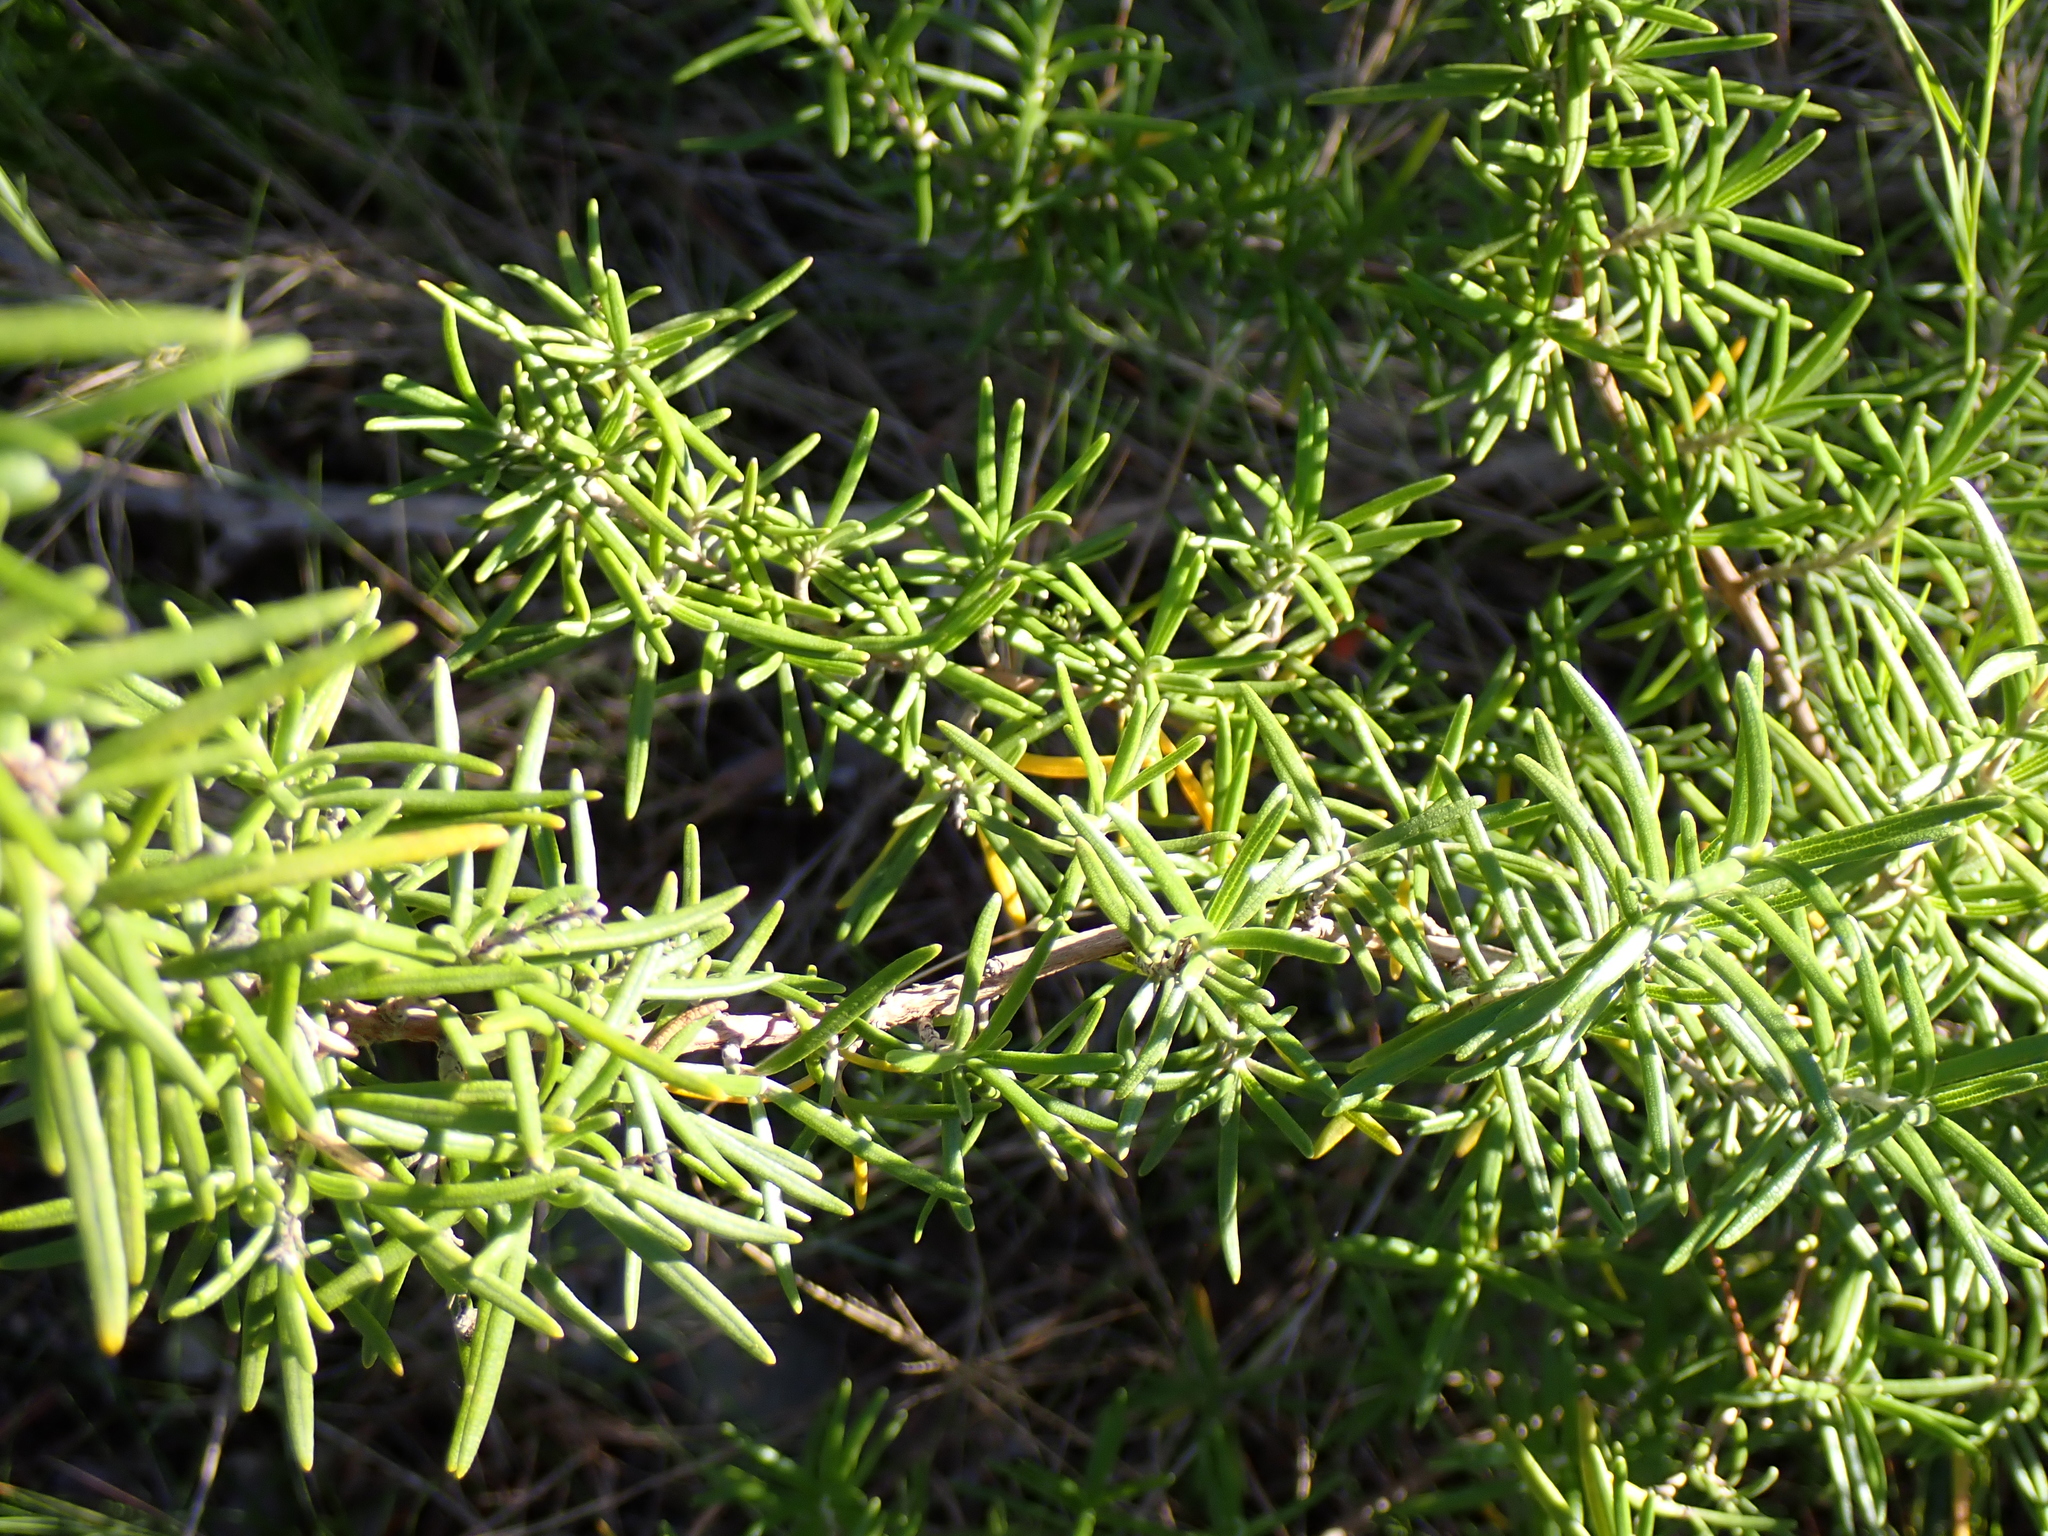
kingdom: Plantae
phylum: Tracheophyta
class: Magnoliopsida
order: Lamiales
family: Lamiaceae
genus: Salvia
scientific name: Salvia rosmarinus
